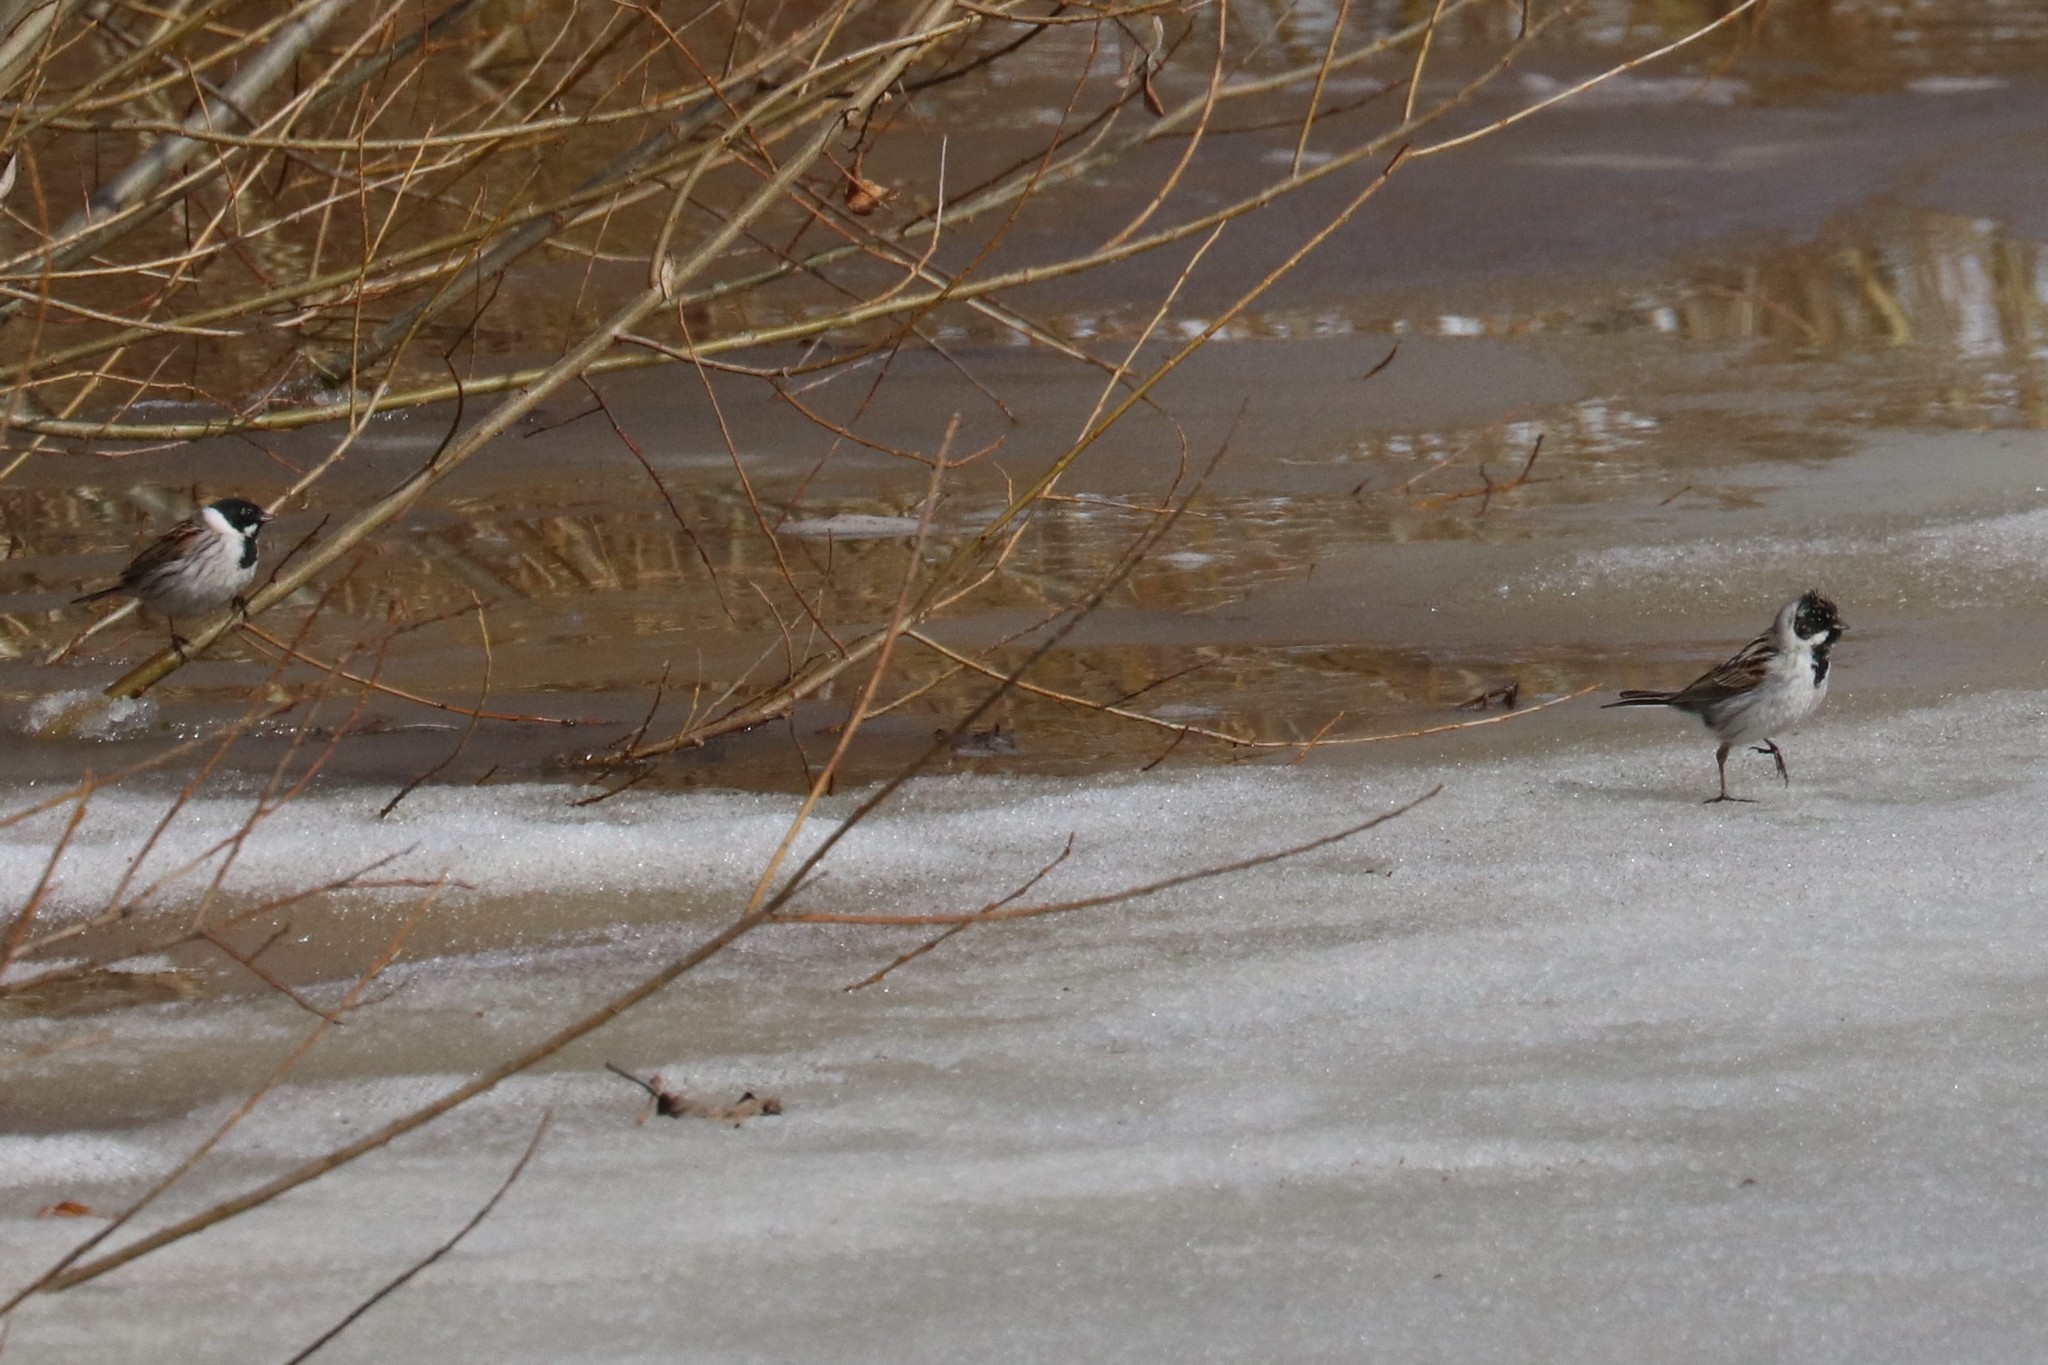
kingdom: Animalia
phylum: Chordata
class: Aves
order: Passeriformes
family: Emberizidae
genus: Emberiza
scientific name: Emberiza schoeniclus
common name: Reed bunting
